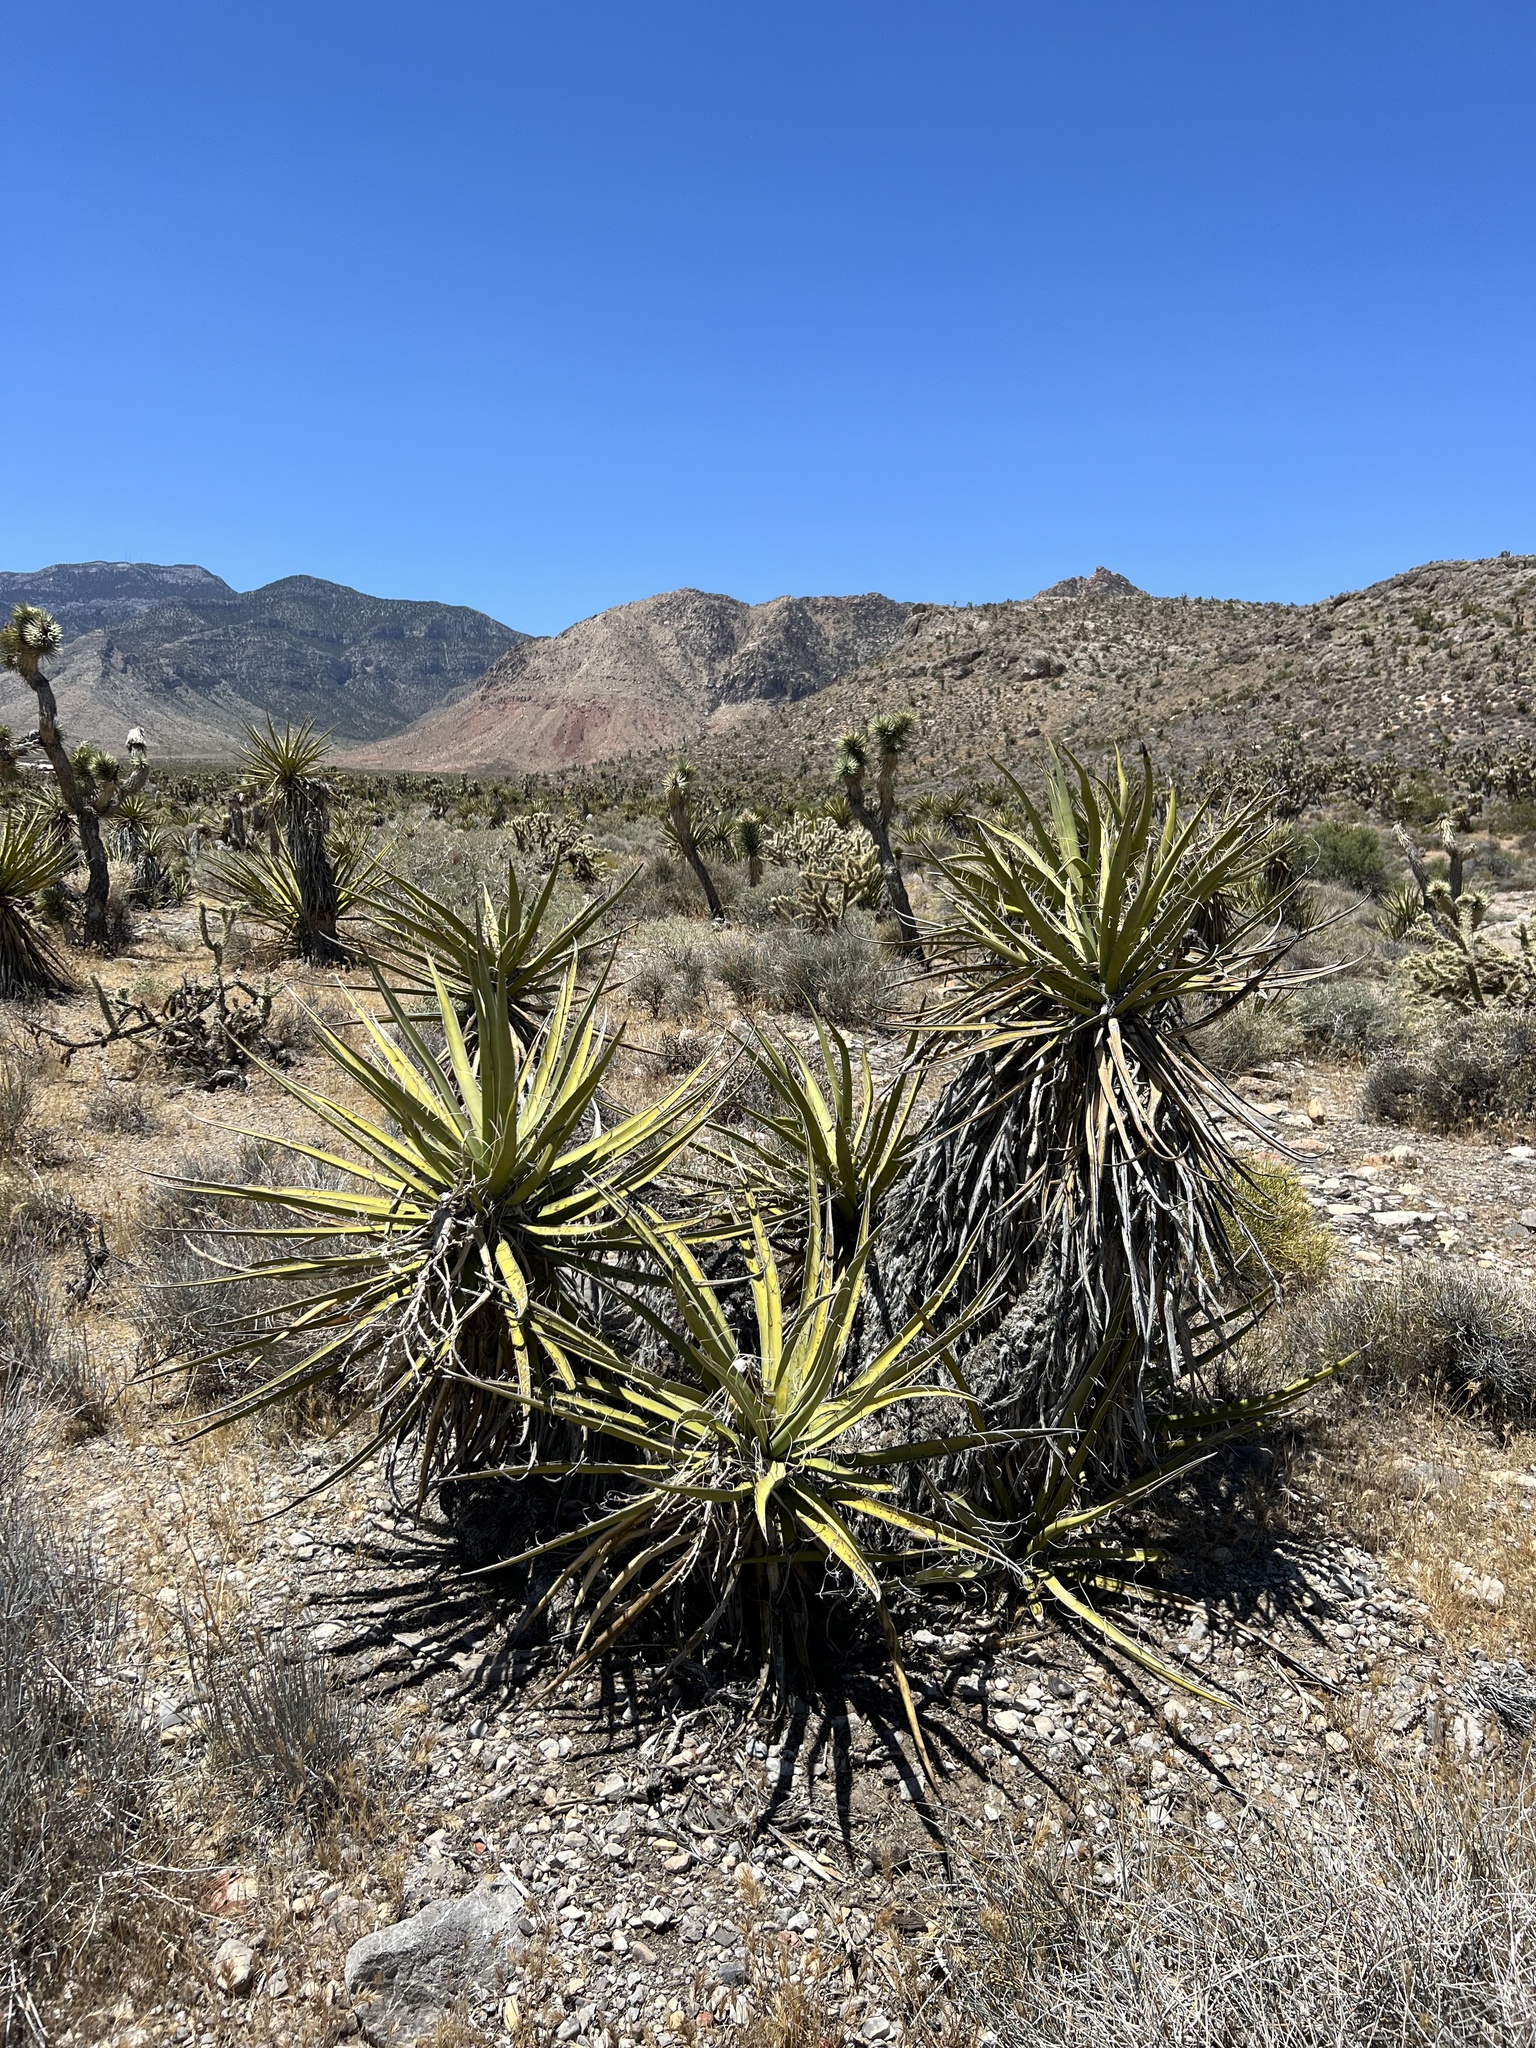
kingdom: Plantae
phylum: Tracheophyta
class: Liliopsida
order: Asparagales
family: Asparagaceae
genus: Yucca
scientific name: Yucca schidigera
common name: Mojave yucca
